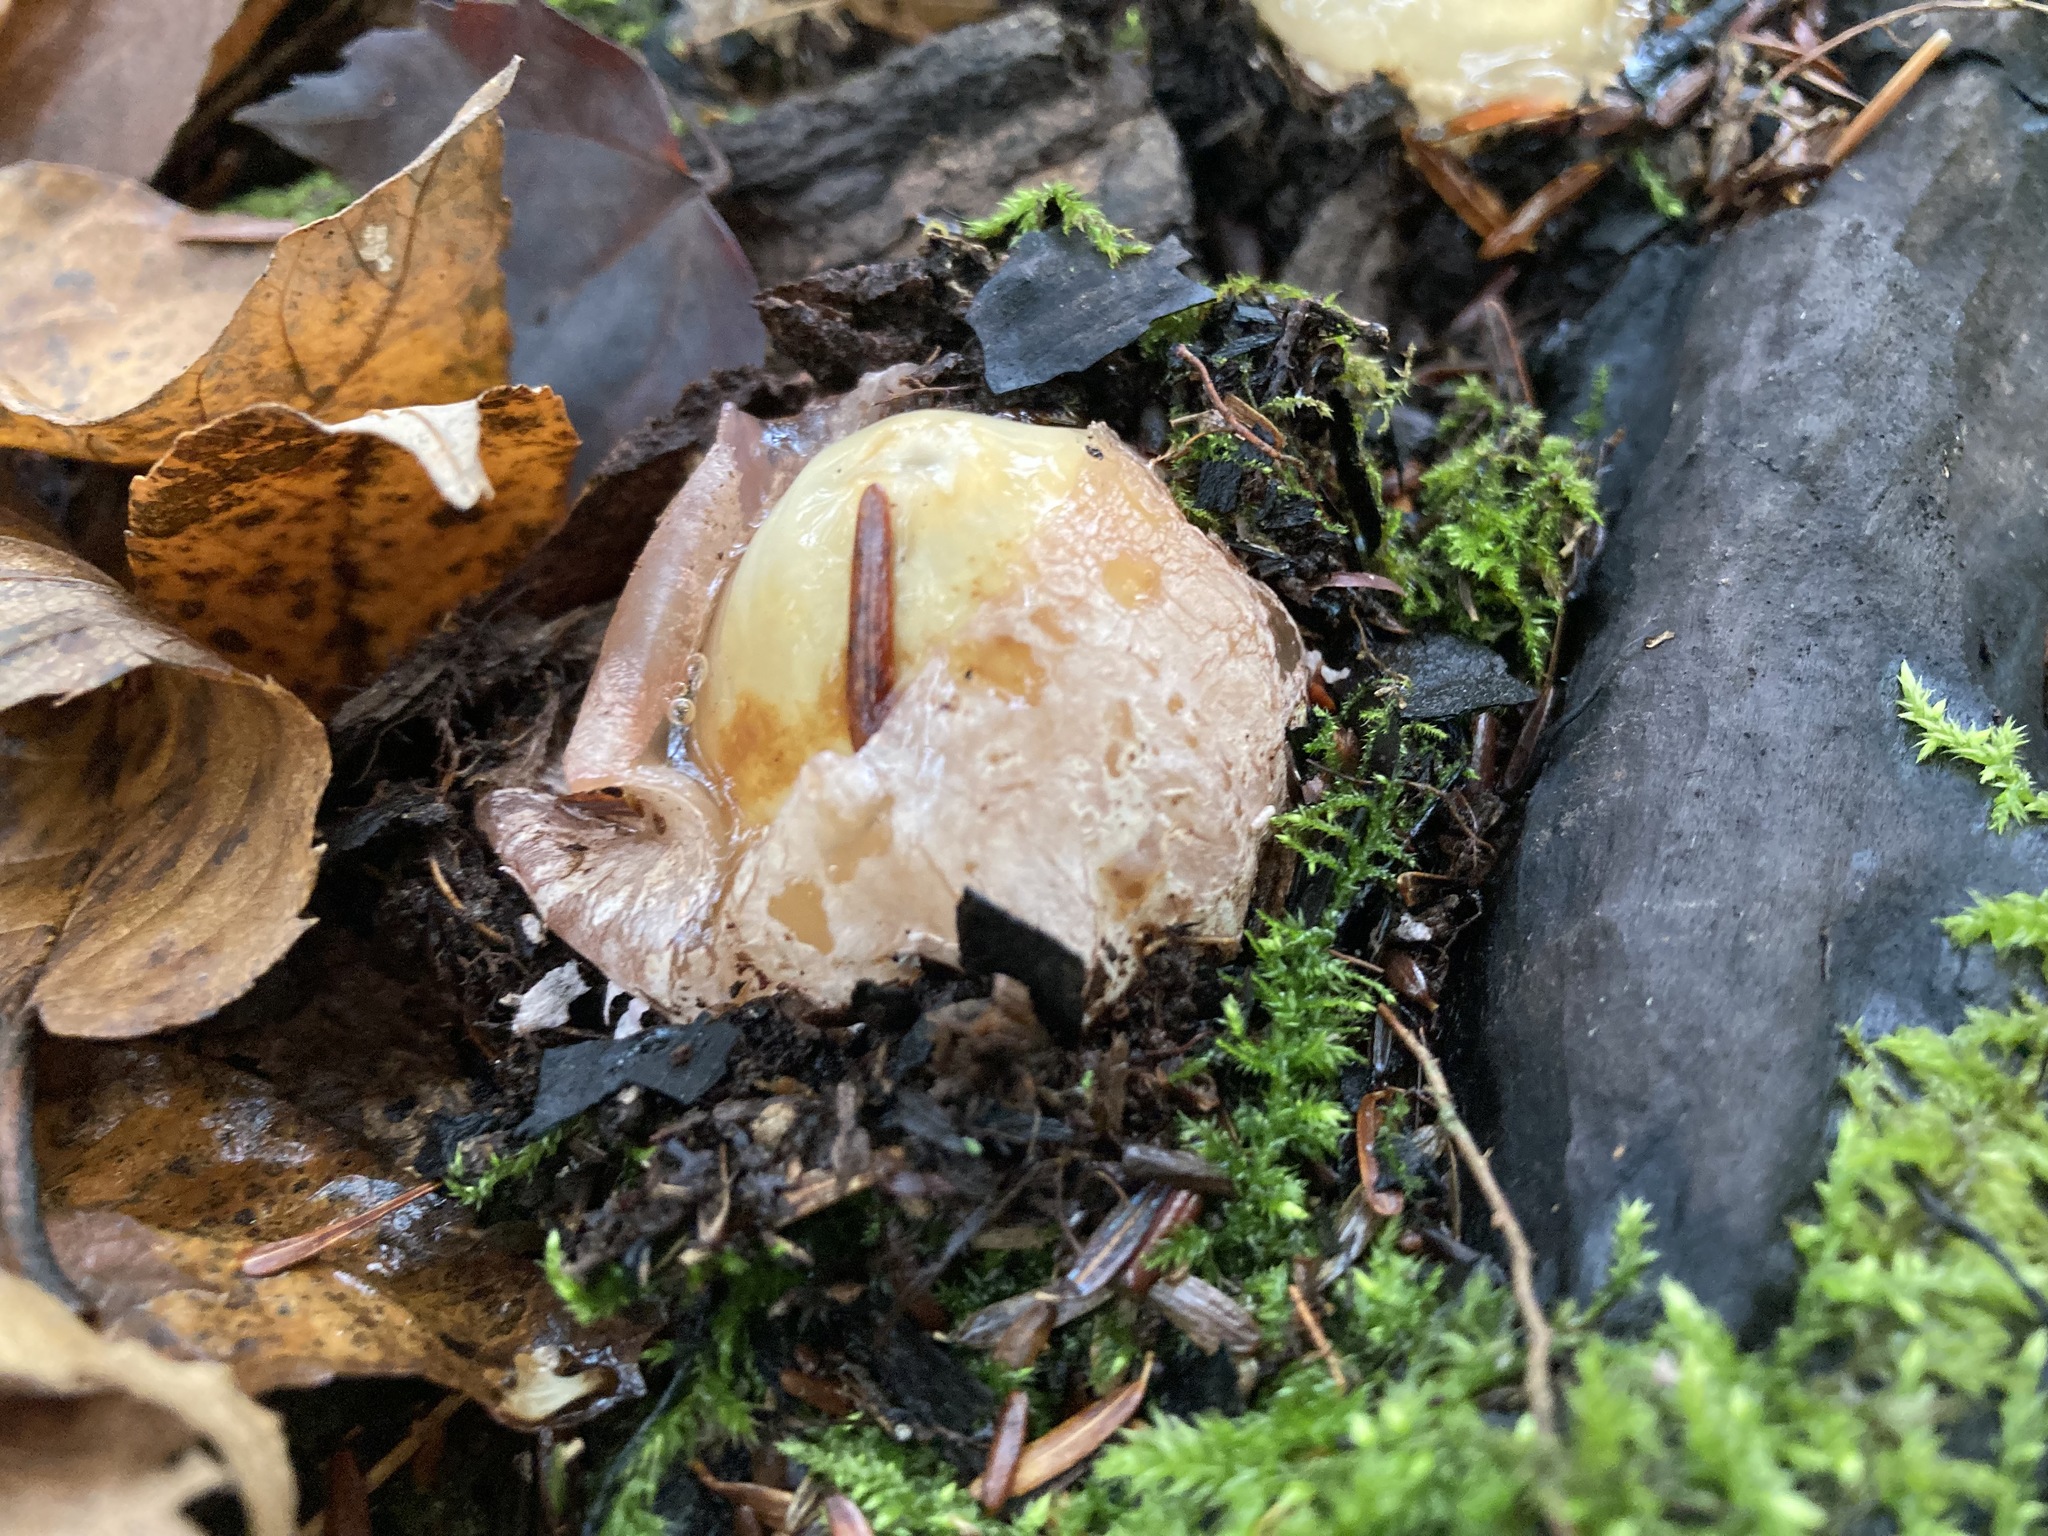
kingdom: Fungi
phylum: Basidiomycota
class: Agaricomycetes
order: Phallales
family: Phallaceae
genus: Phallus
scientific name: Phallus ravenelii
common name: Ravenel's stinkhorn
